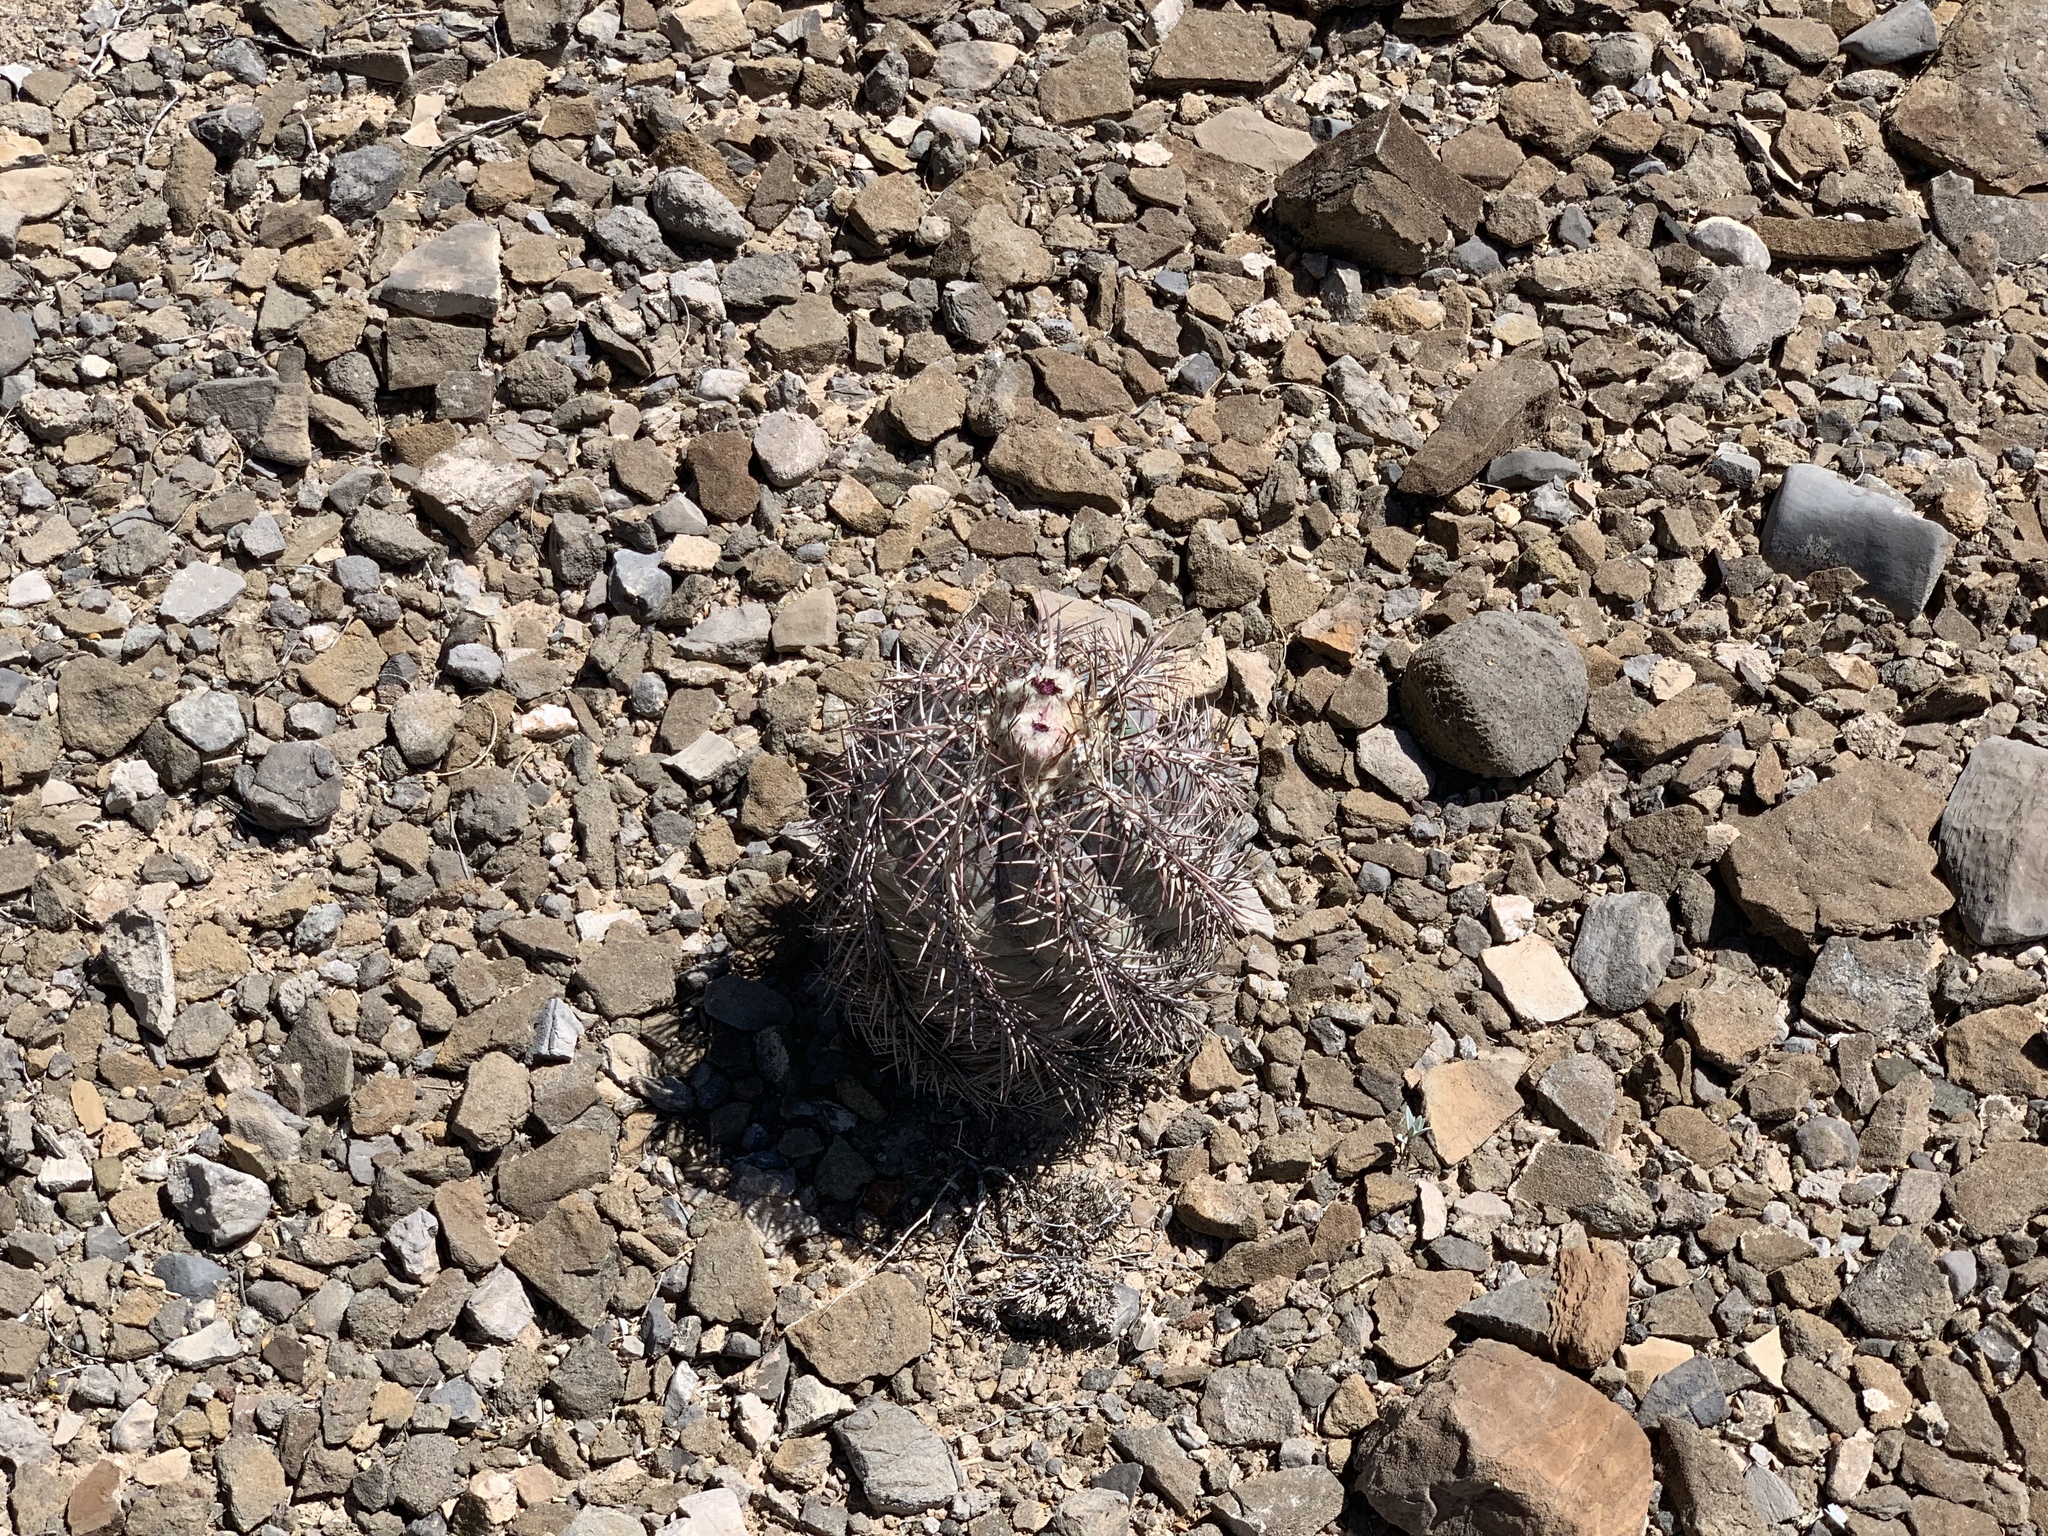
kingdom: Plantae
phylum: Tracheophyta
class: Magnoliopsida
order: Caryophyllales
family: Cactaceae
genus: Echinocactus
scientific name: Echinocactus horizonthalonius
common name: Devilshead
